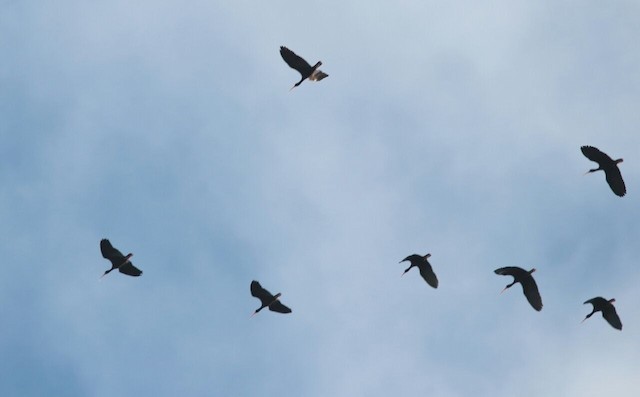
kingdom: Animalia
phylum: Chordata
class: Aves
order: Pelecaniformes
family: Threskiornithidae
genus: Phimosus
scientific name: Phimosus infuscatus
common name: Bare-faced ibis
